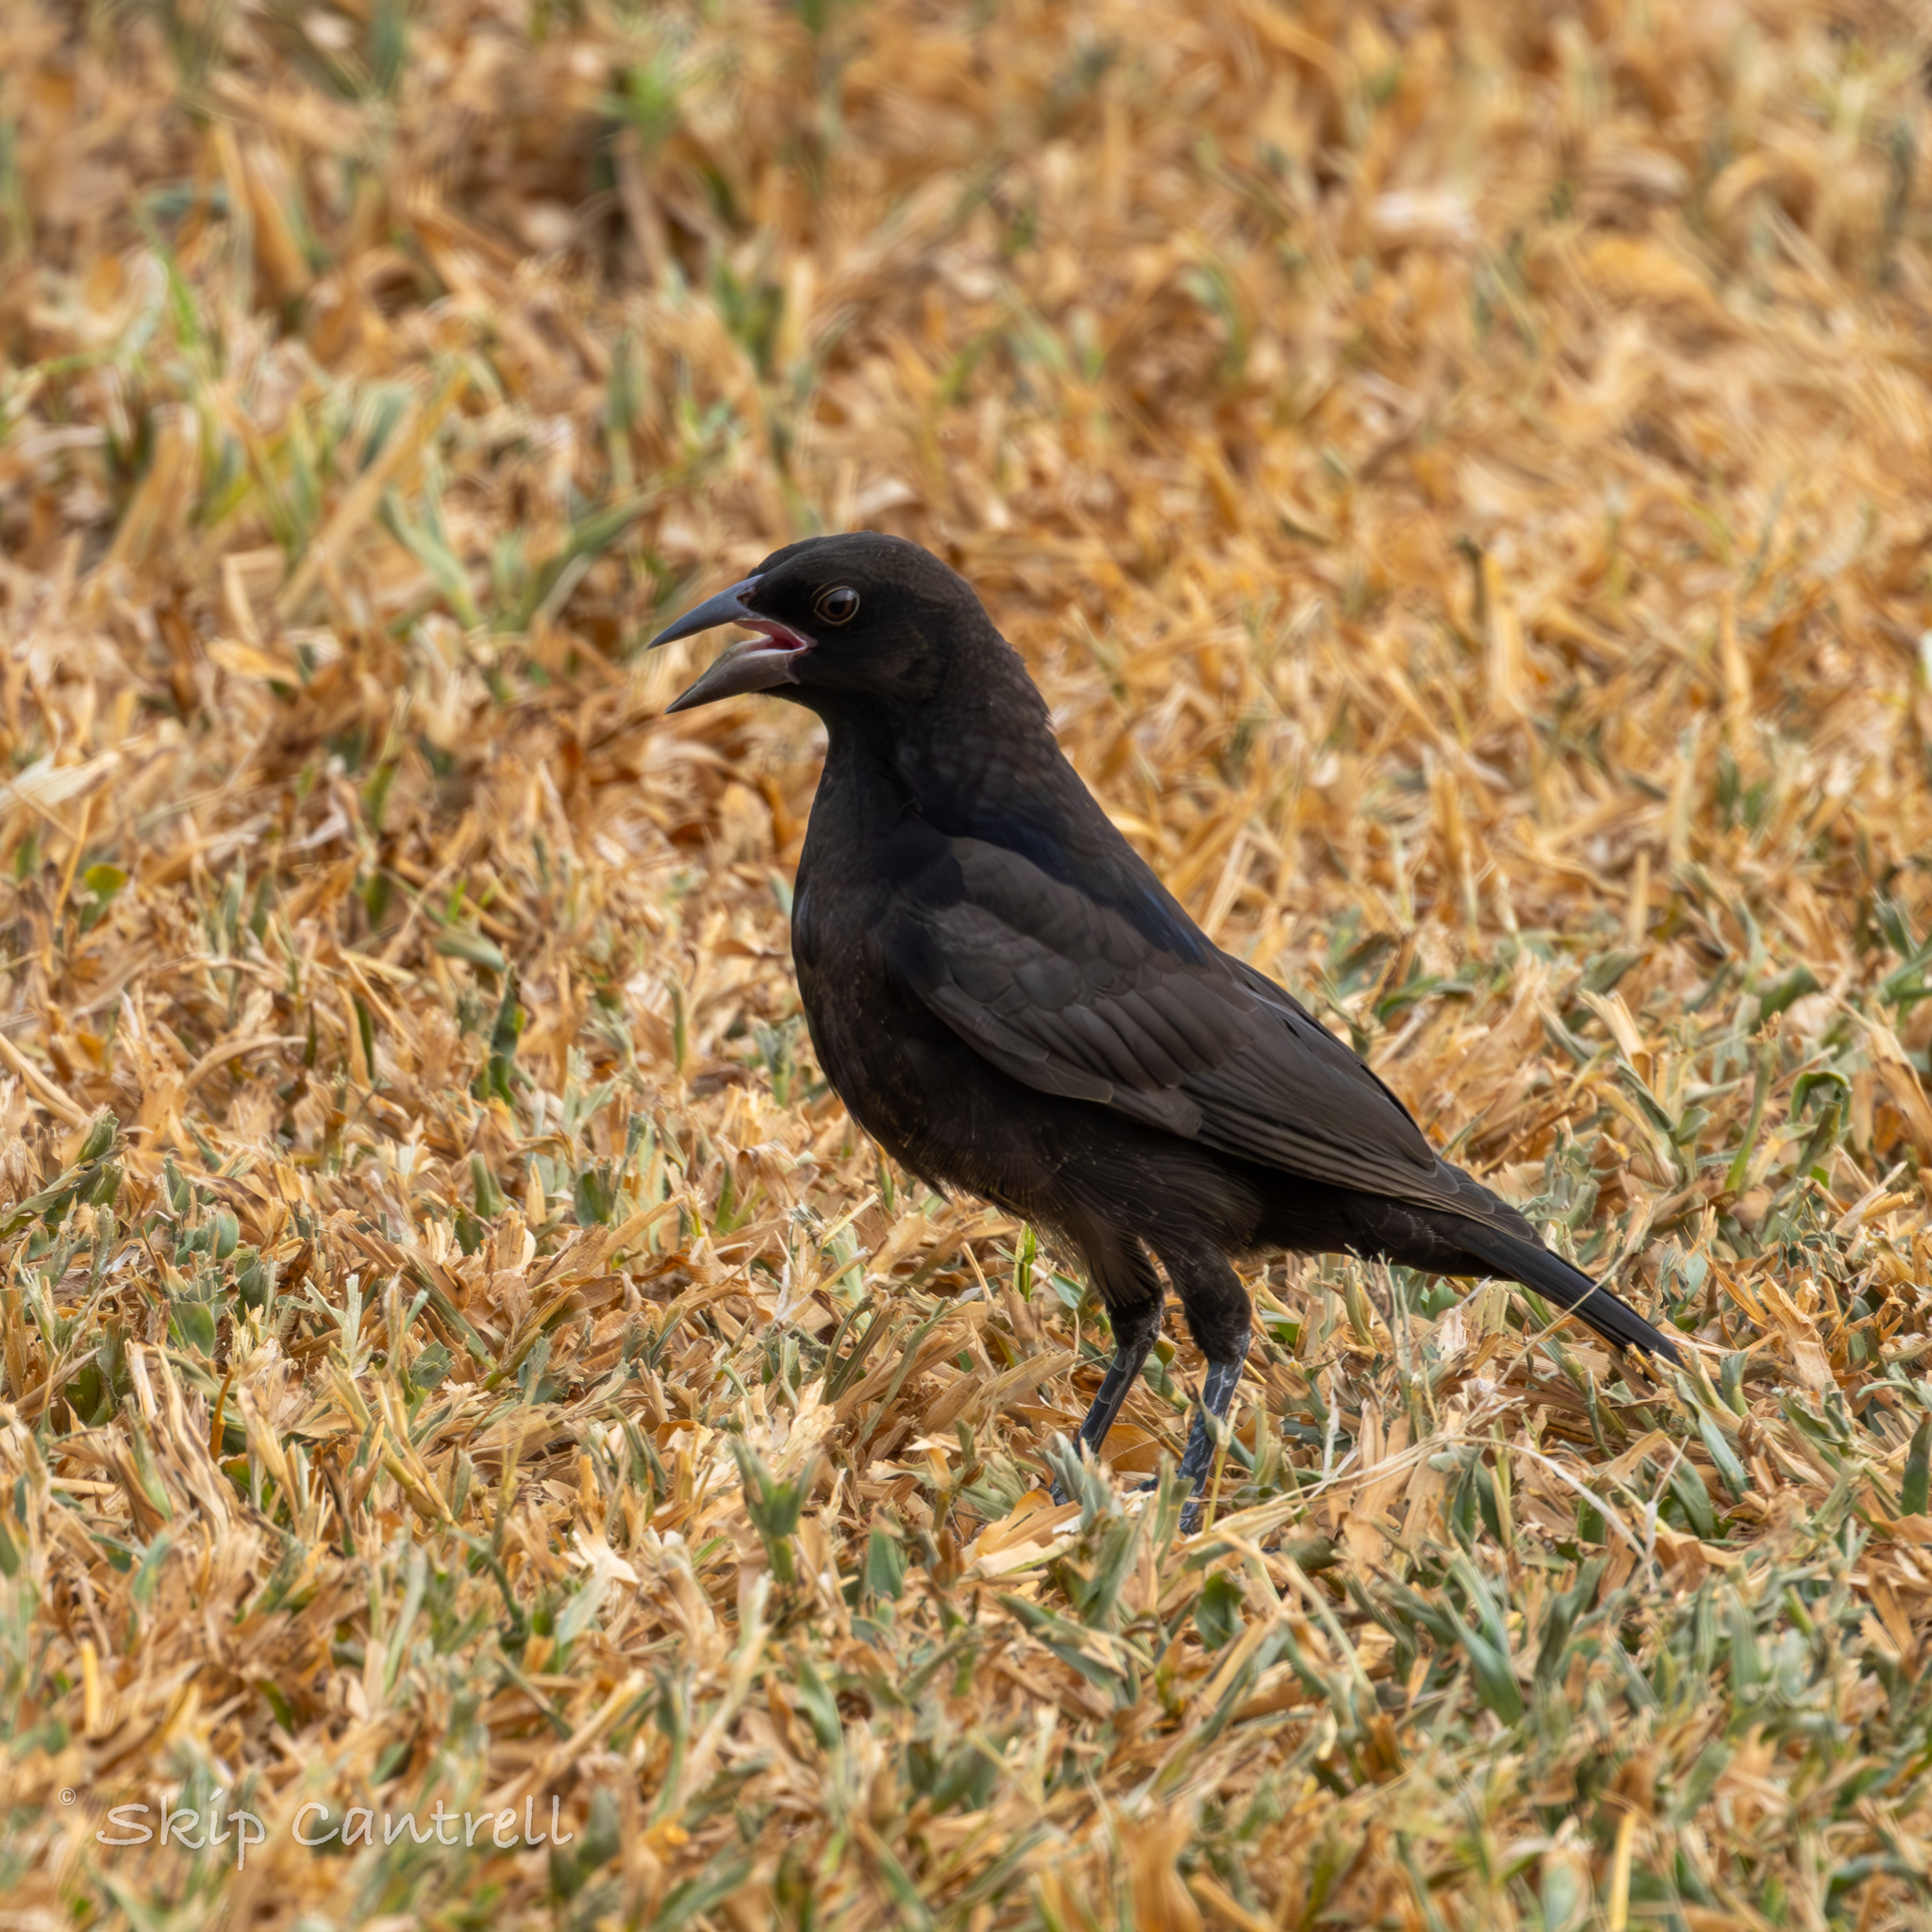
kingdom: Animalia
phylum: Chordata
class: Aves
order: Passeriformes
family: Icteridae
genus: Molothrus
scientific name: Molothrus aeneus
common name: Bronzed cowbird
